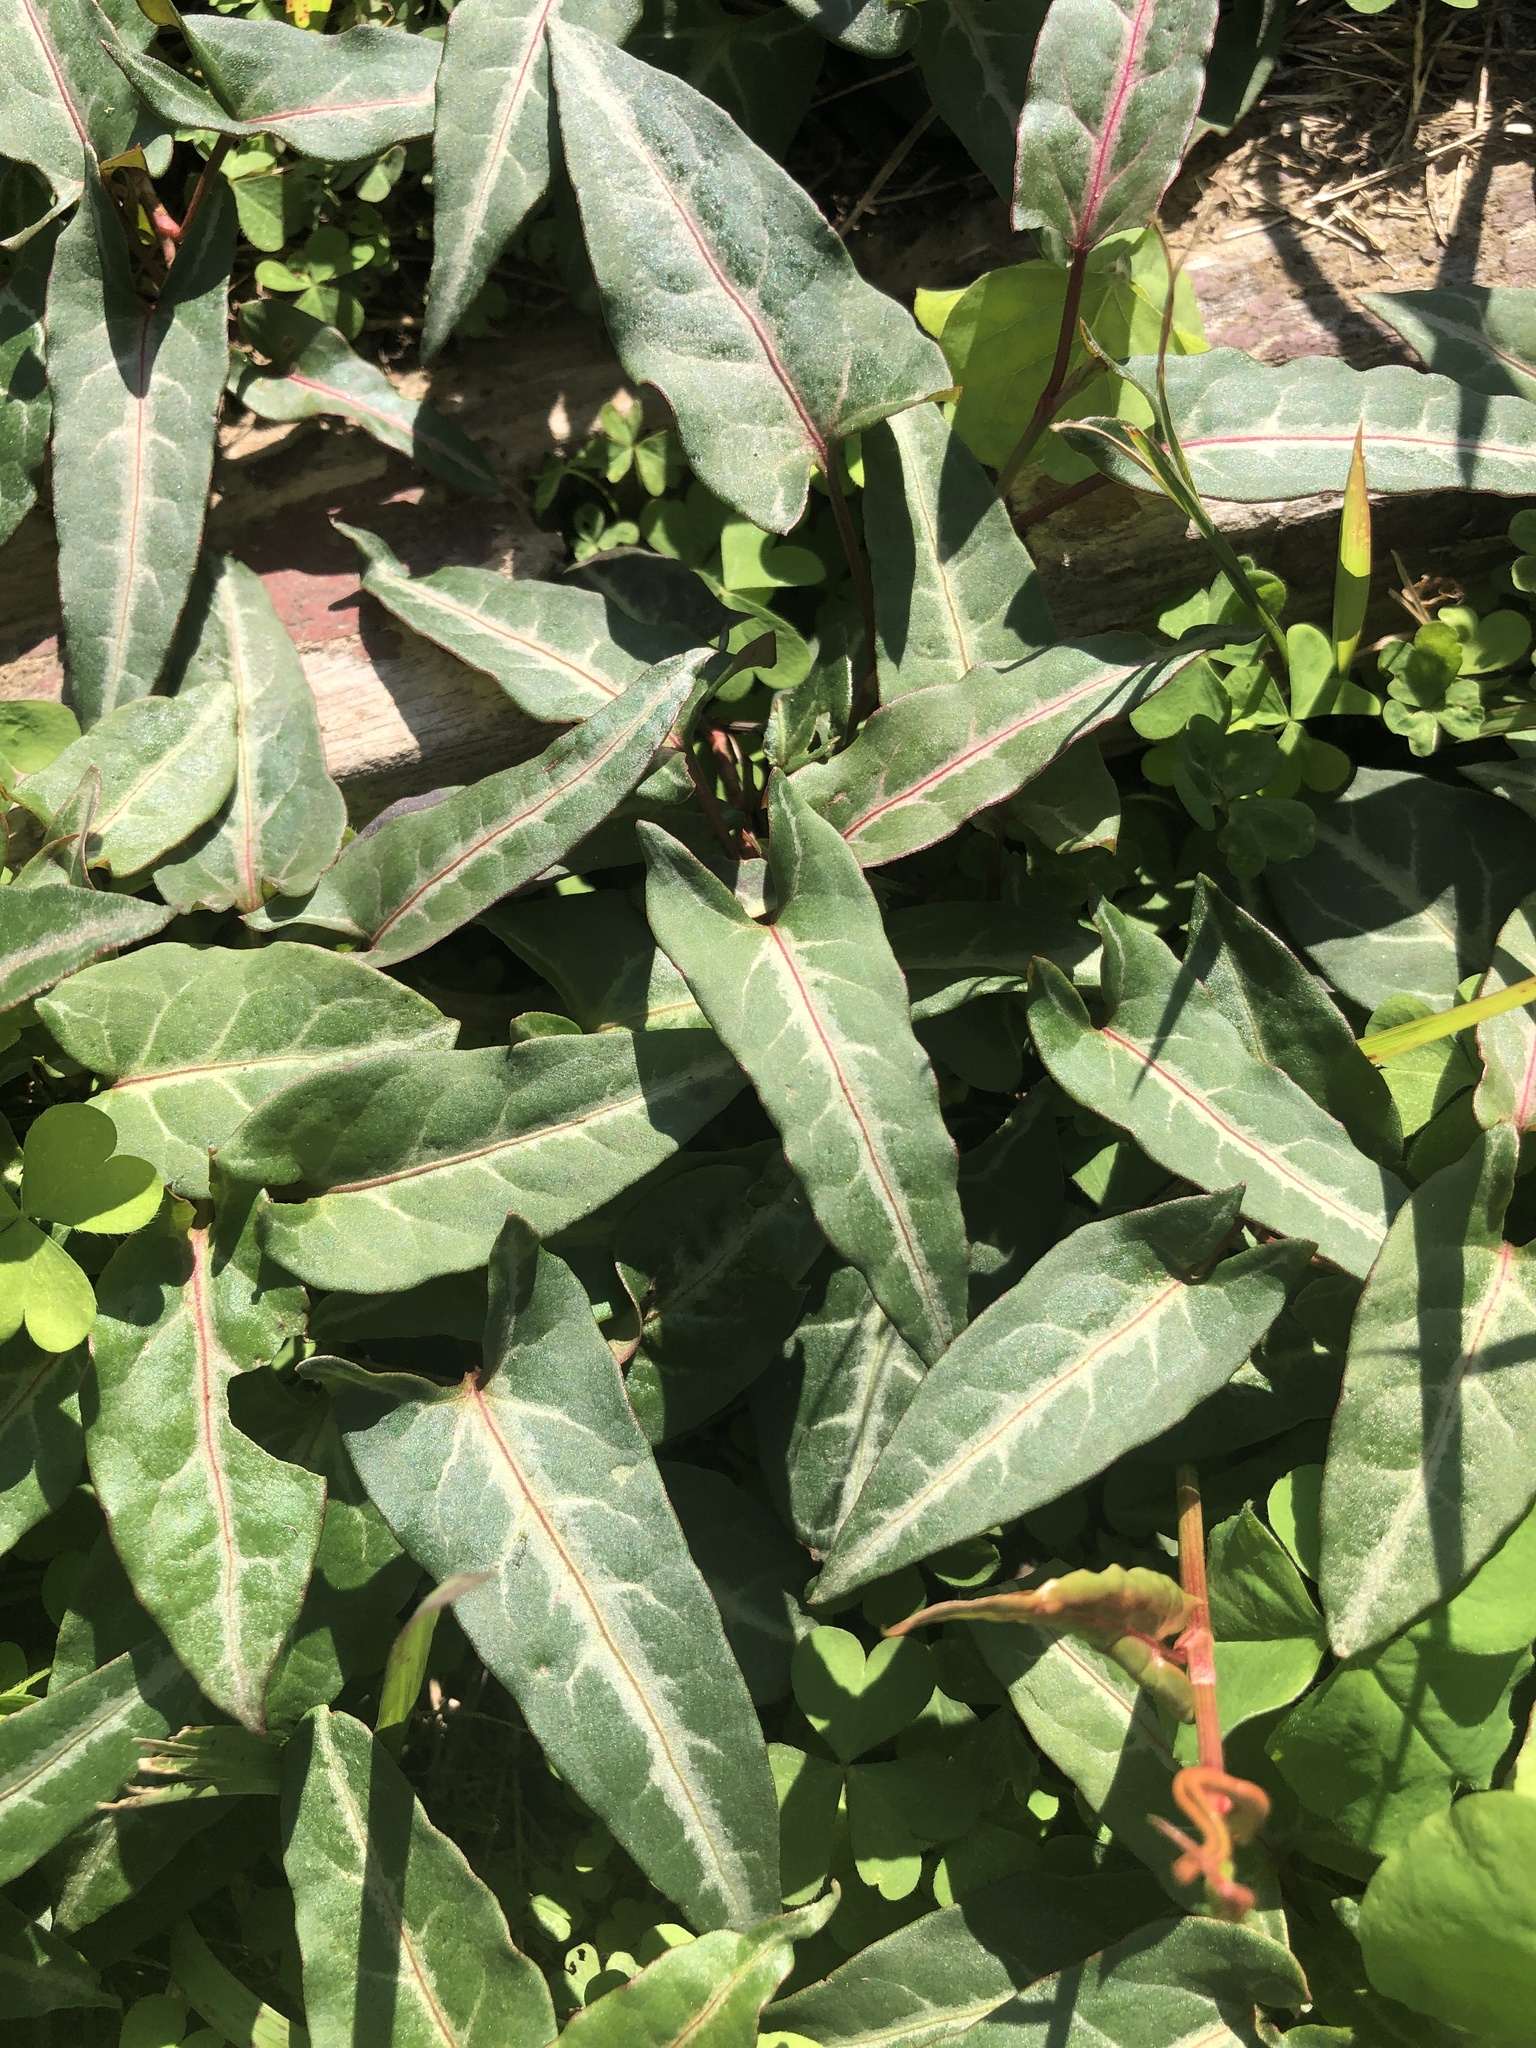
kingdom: Plantae
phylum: Tracheophyta
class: Magnoliopsida
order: Caryophyllales
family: Polygonaceae
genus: Reynoutria
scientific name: Reynoutria multiflora
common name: Chinese fleeceflower
